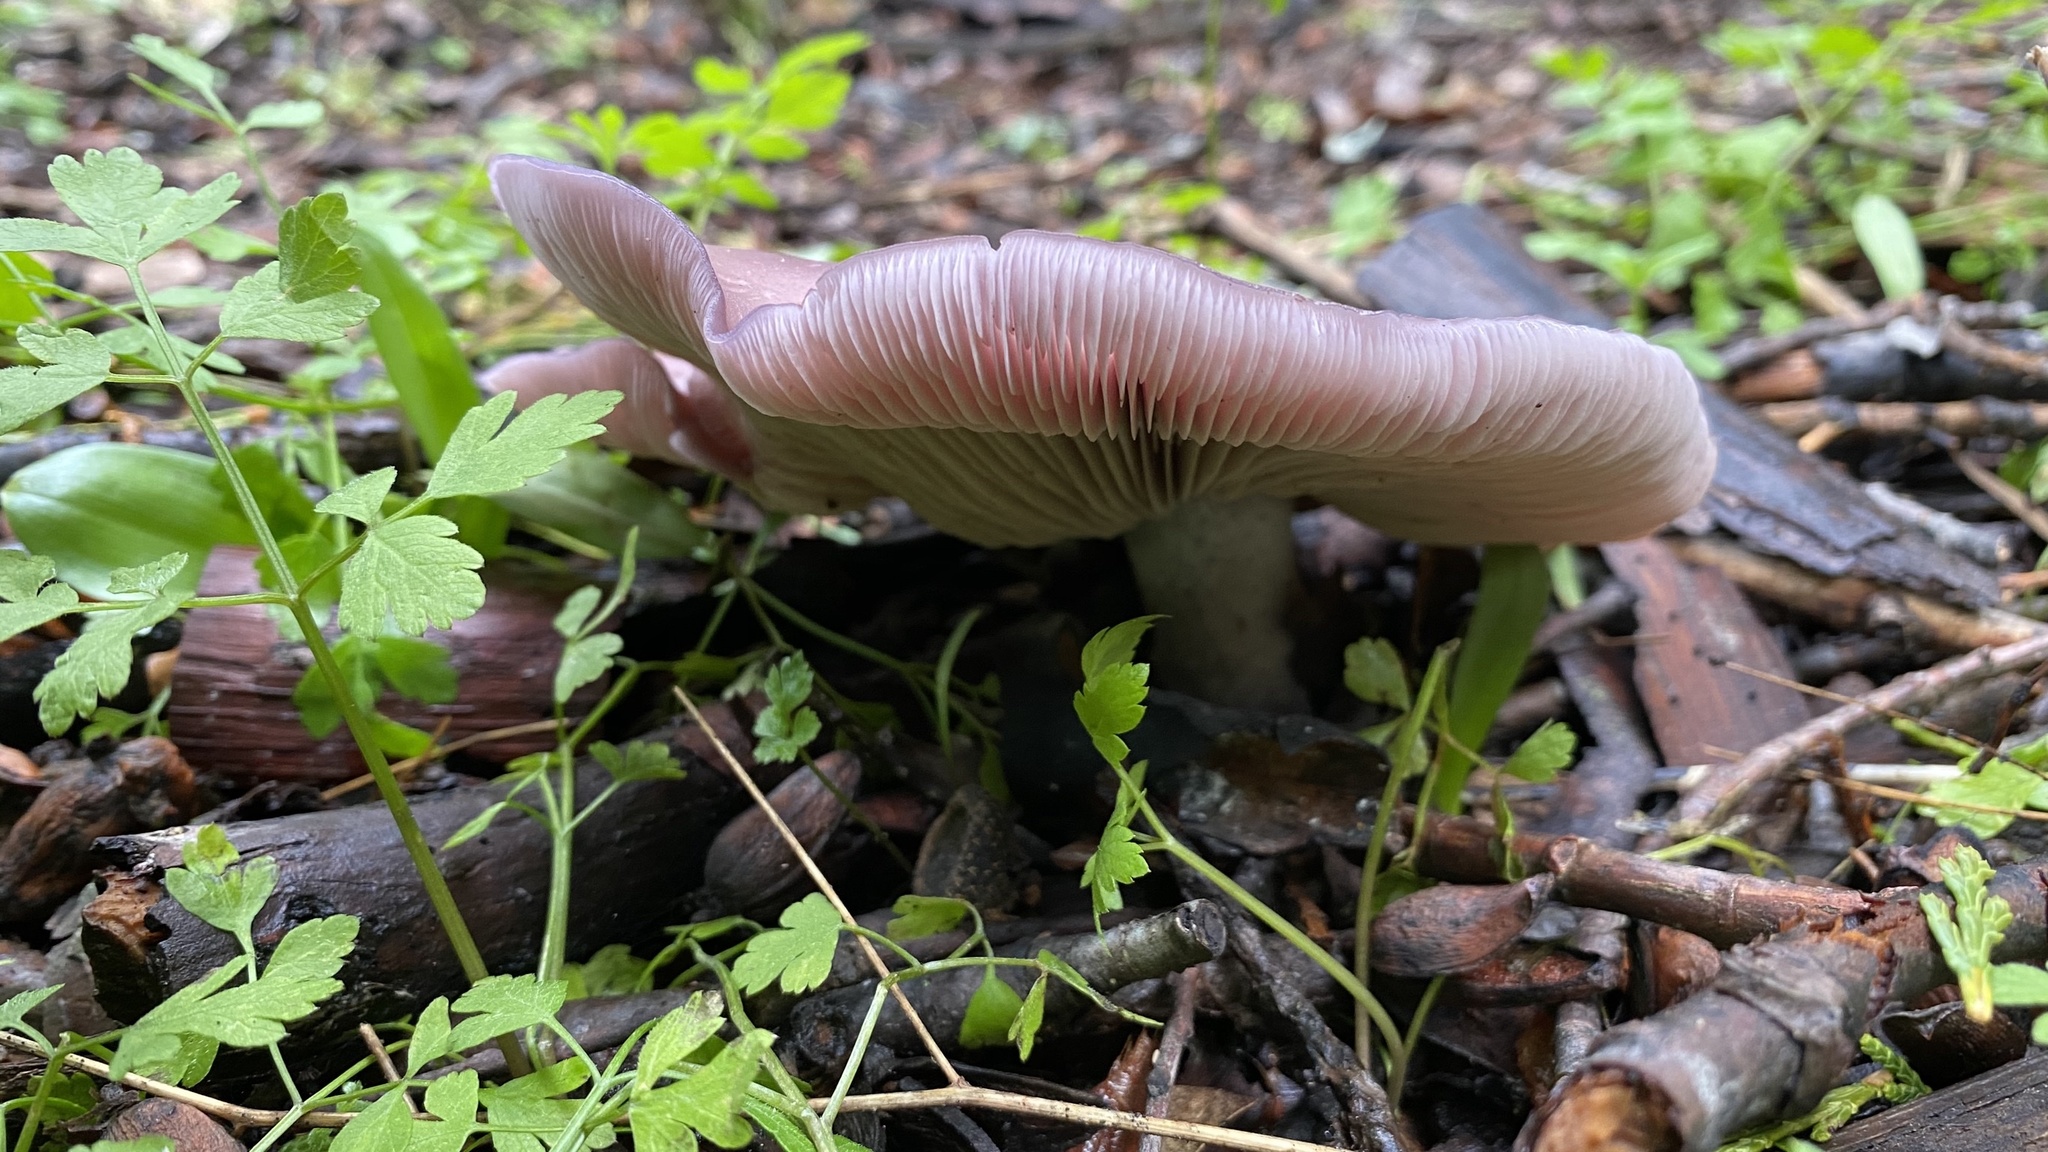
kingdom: Fungi
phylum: Basidiomycota
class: Agaricomycetes
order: Agaricales
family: Tricholomataceae
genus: Collybia
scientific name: Collybia
